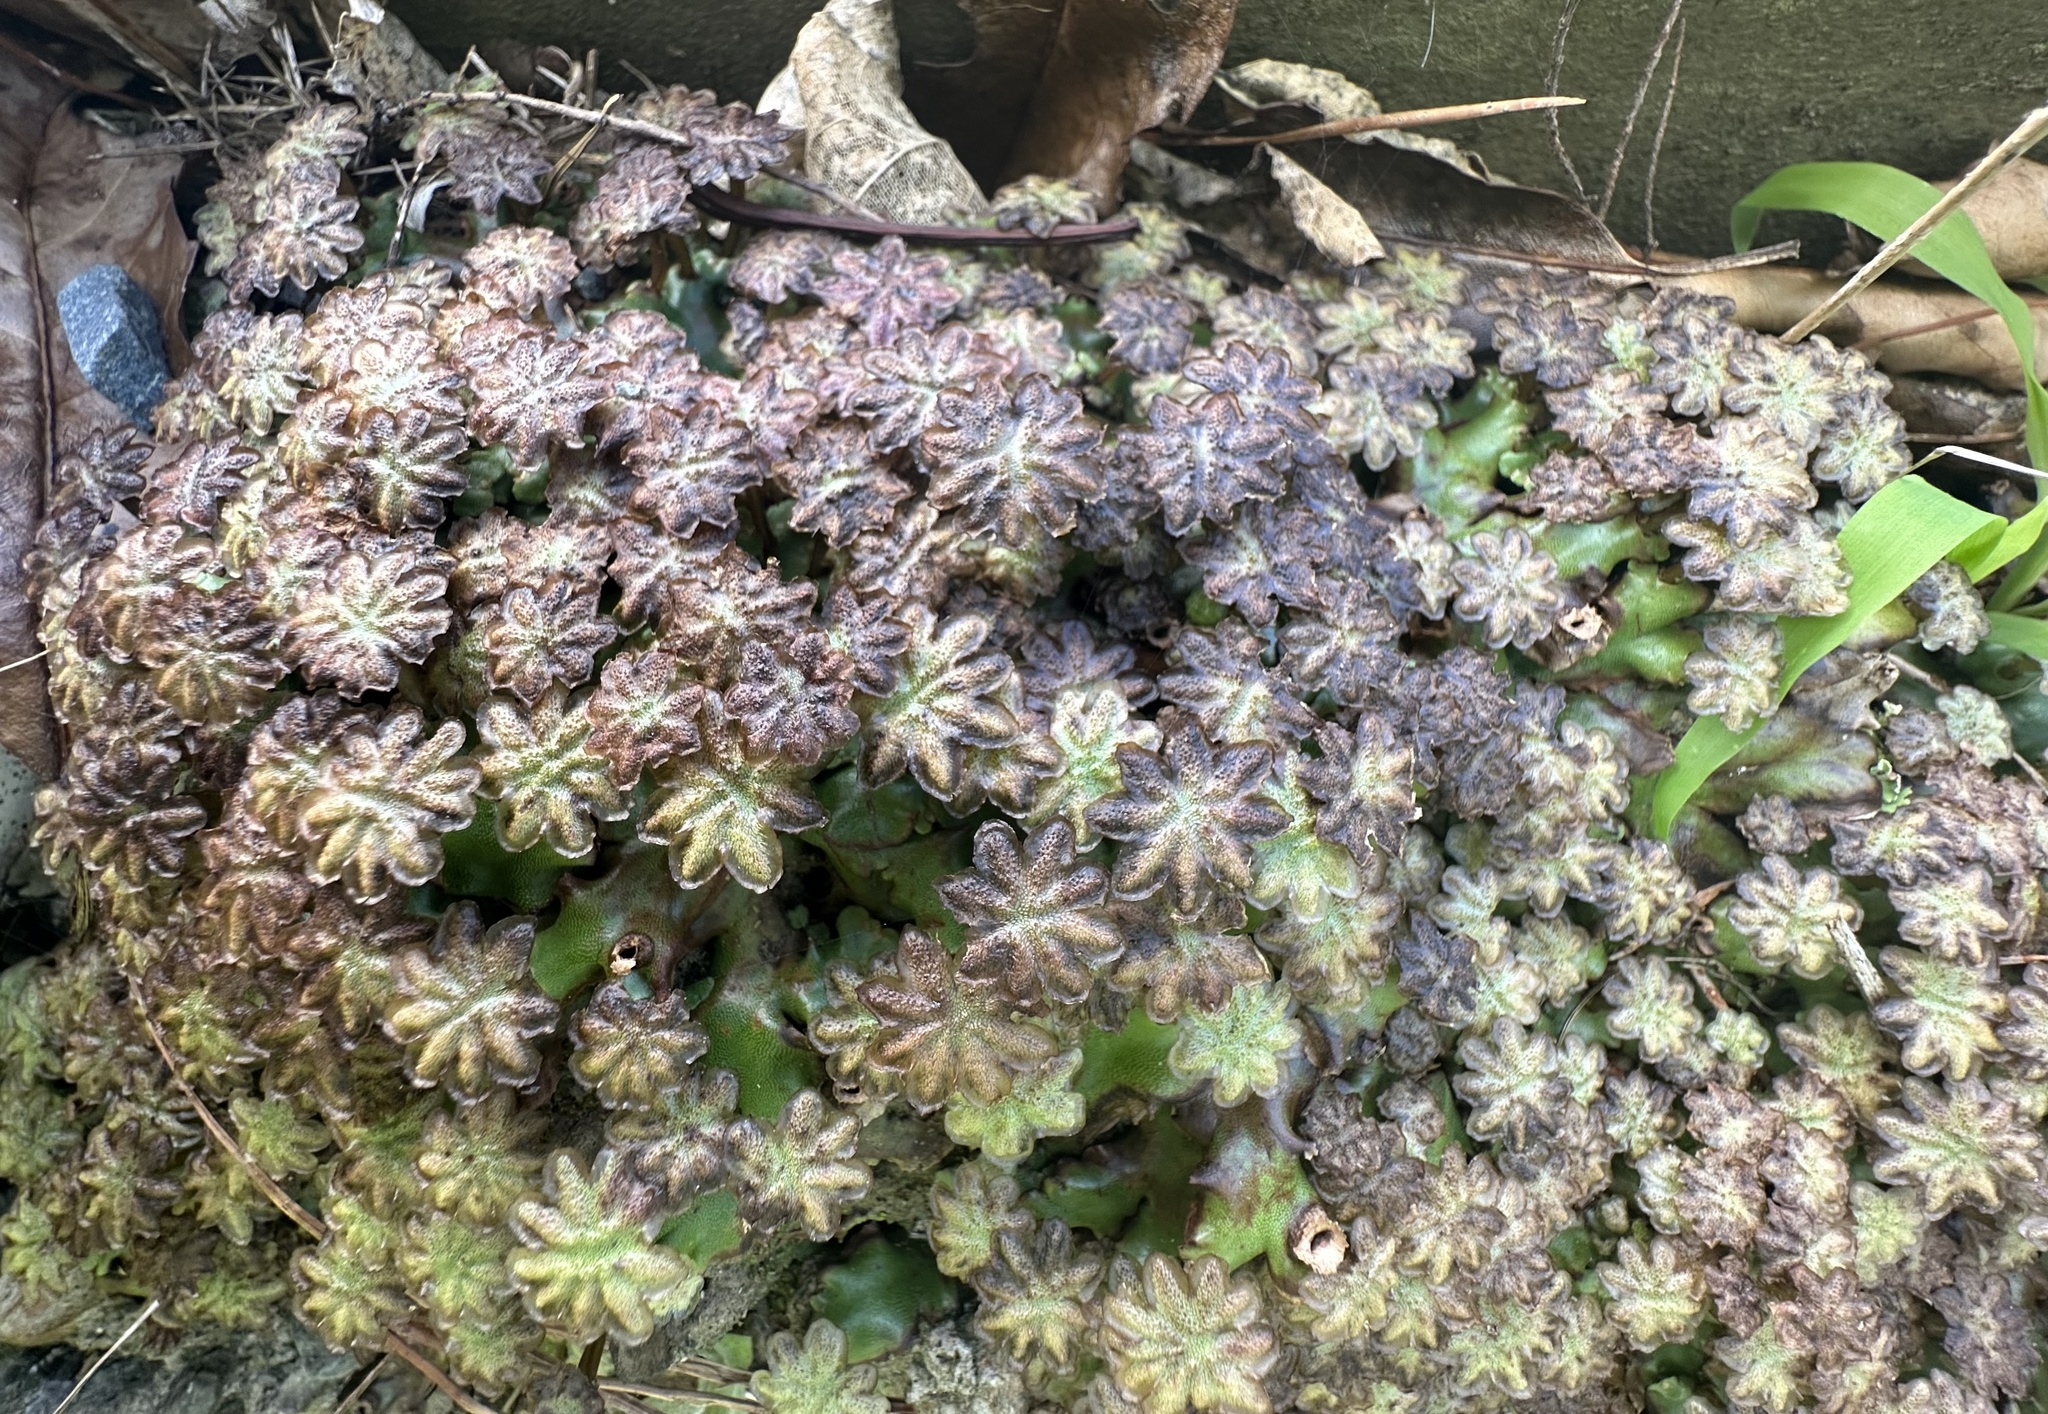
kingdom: Plantae
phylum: Marchantiophyta
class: Marchantiopsida
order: Marchantiales
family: Marchantiaceae
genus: Marchantia
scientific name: Marchantia berteroana
